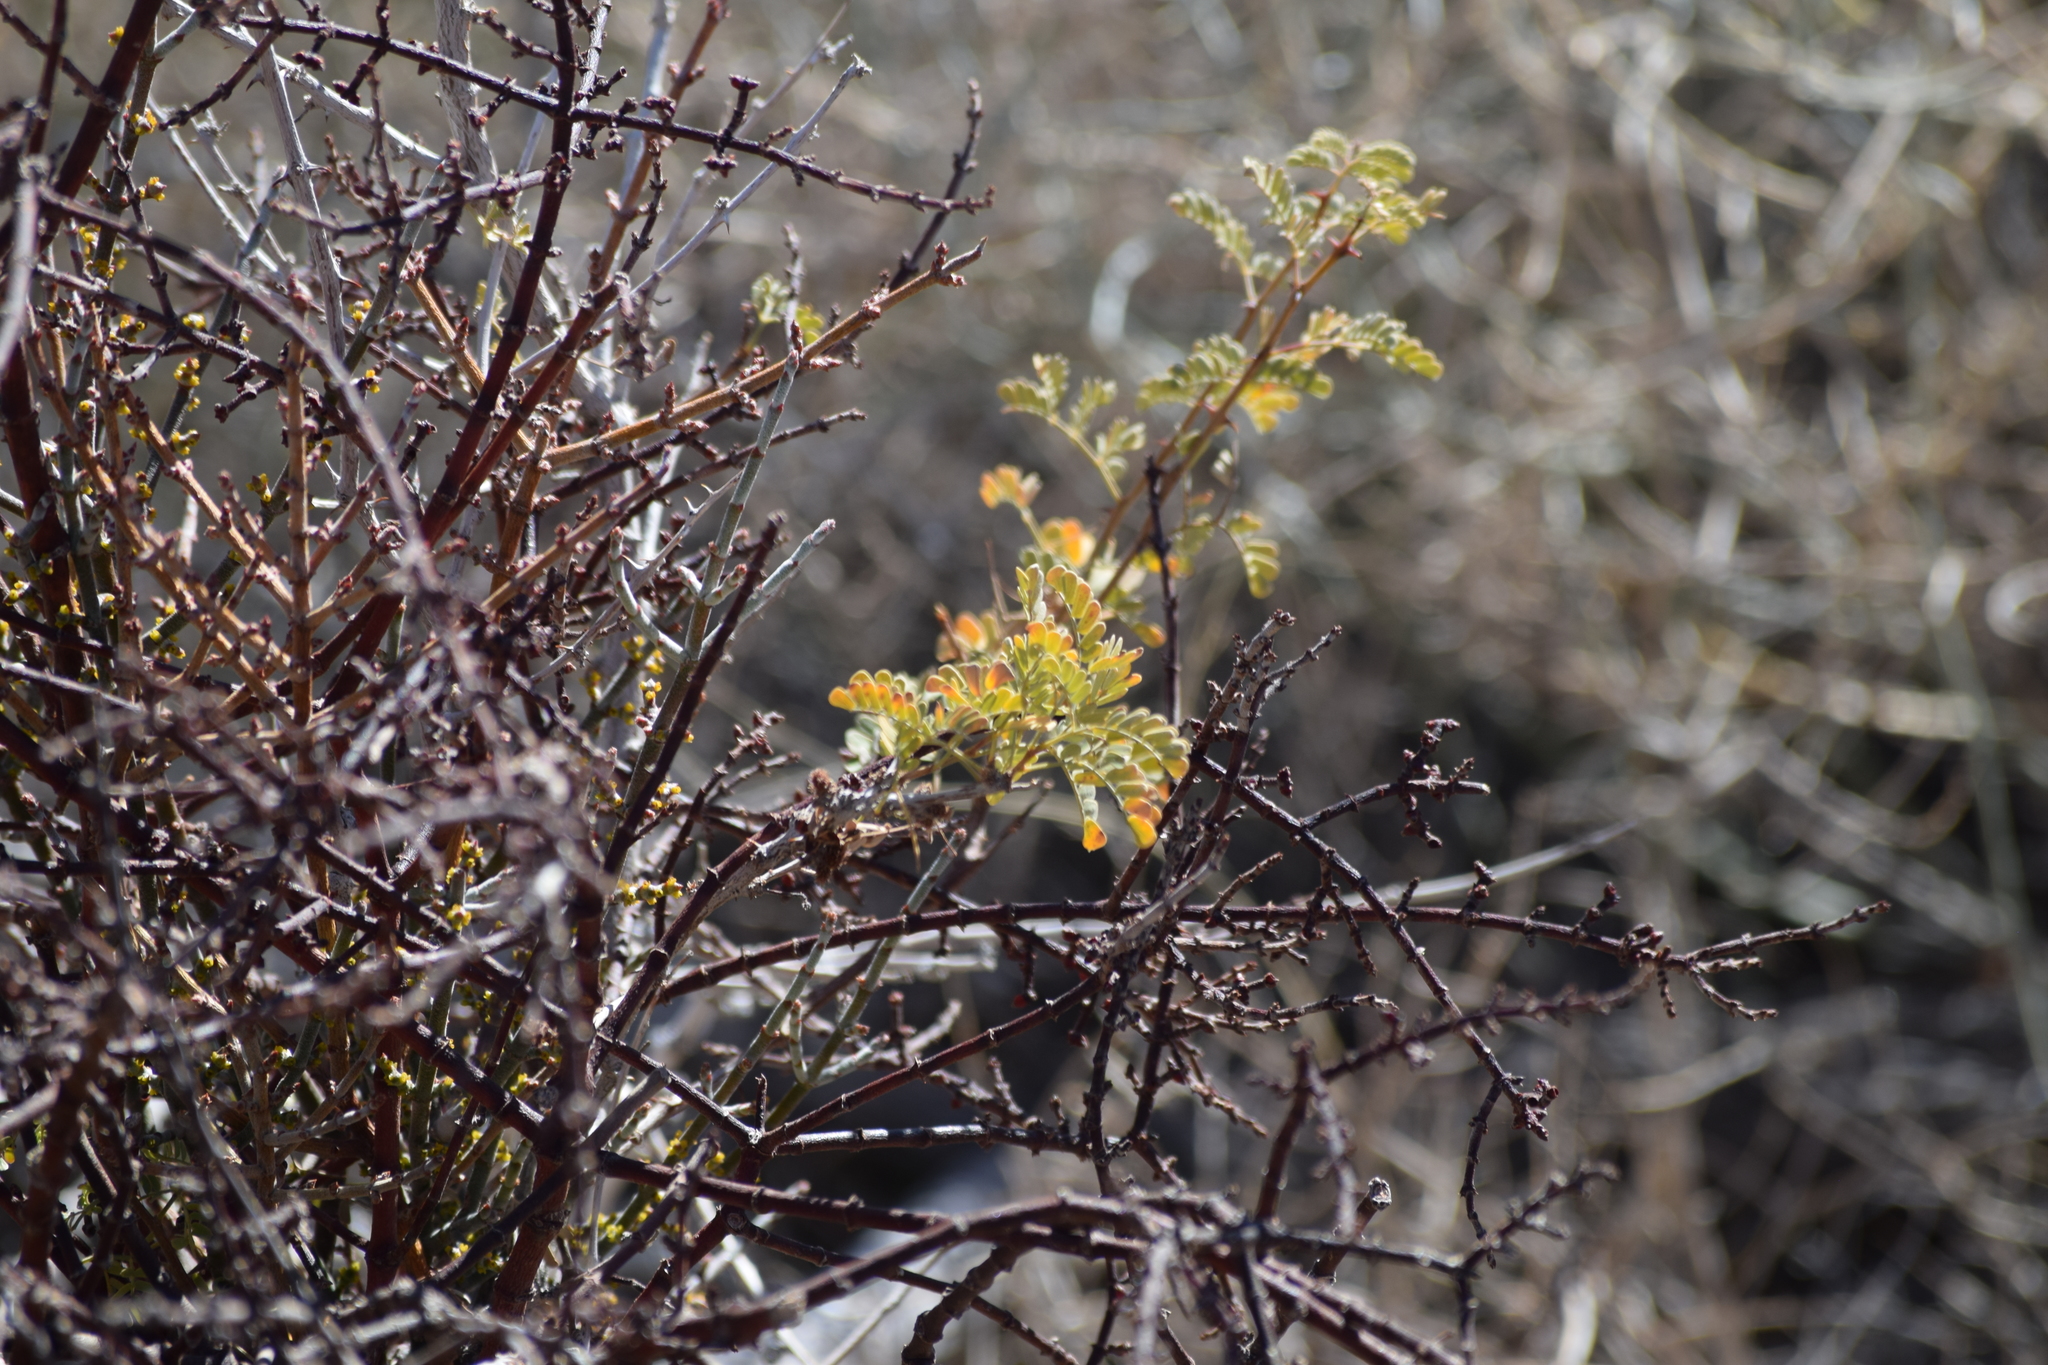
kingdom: Plantae
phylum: Tracheophyta
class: Magnoliopsida
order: Fabales
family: Fabaceae
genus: Senegalia
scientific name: Senegalia greggii
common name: Texas-mimosa
